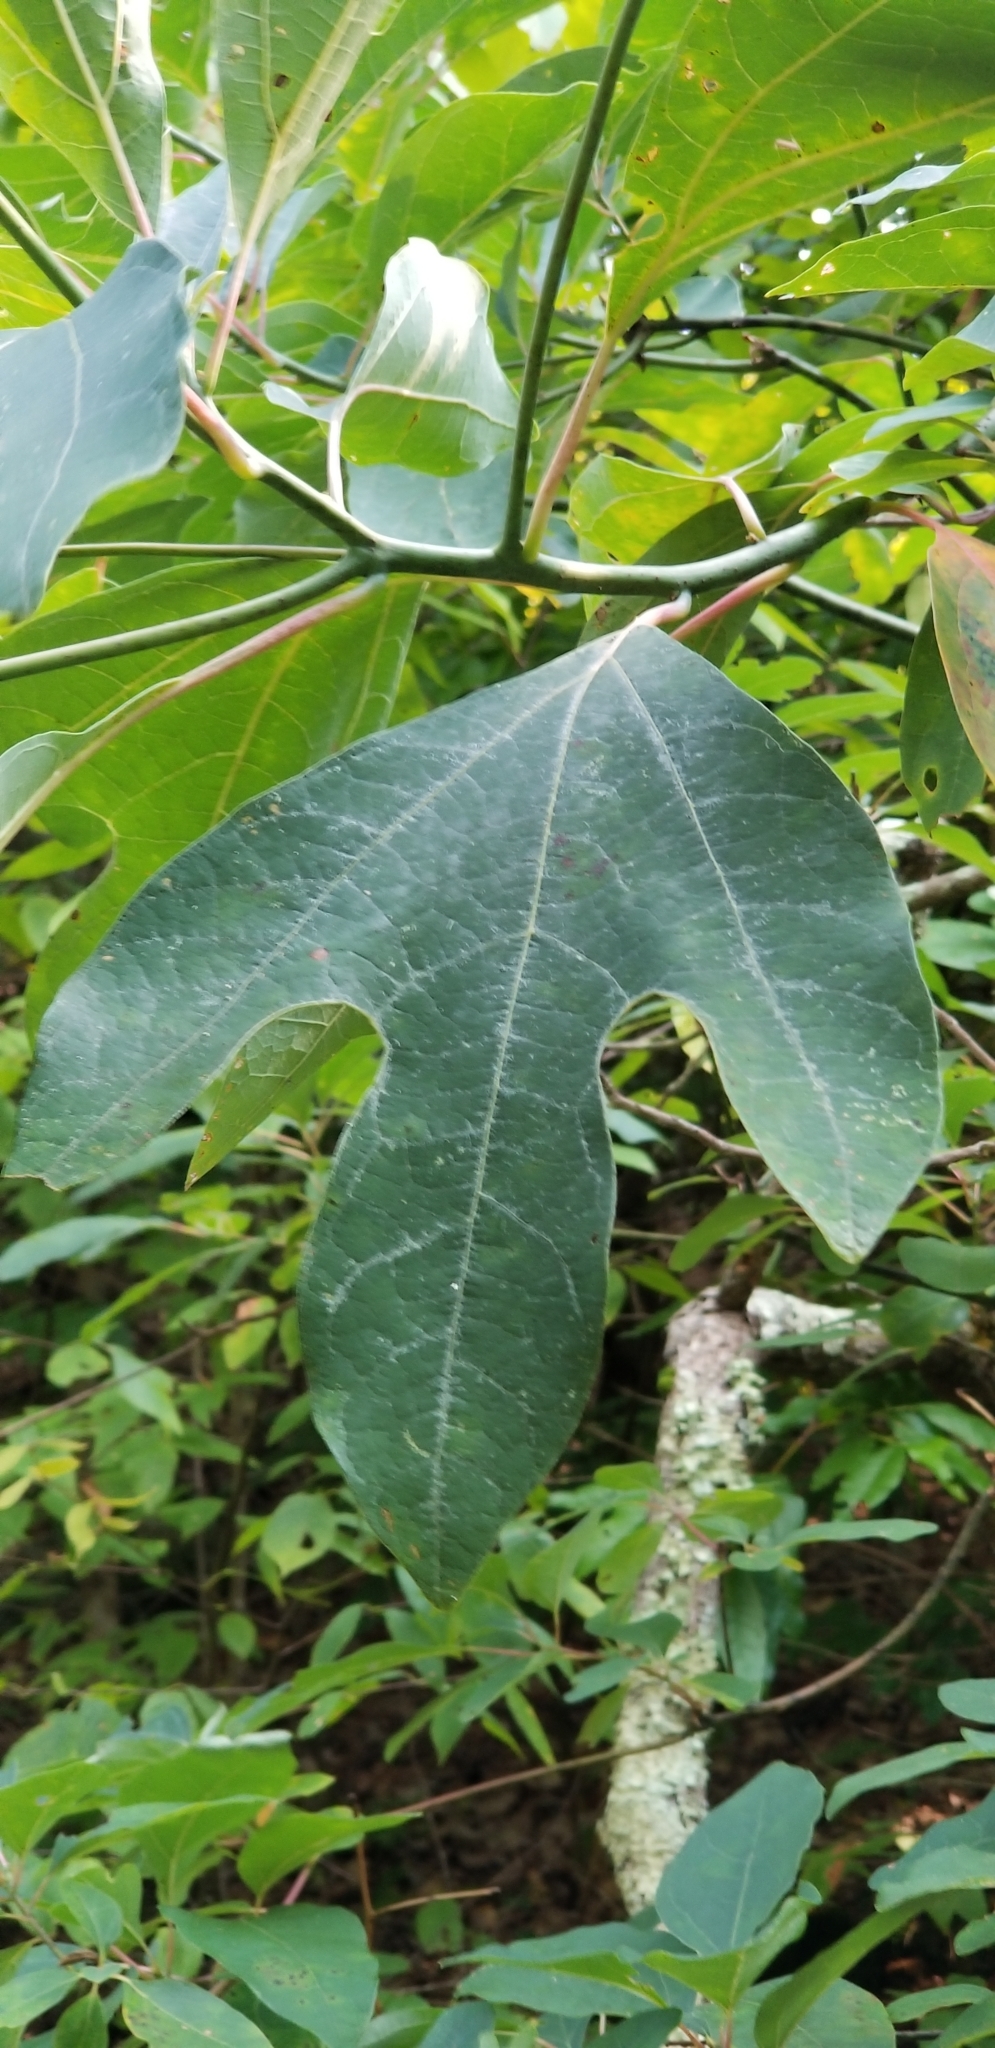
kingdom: Plantae
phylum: Tracheophyta
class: Magnoliopsida
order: Laurales
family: Lauraceae
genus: Sassafras
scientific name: Sassafras albidum
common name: Sassafras
